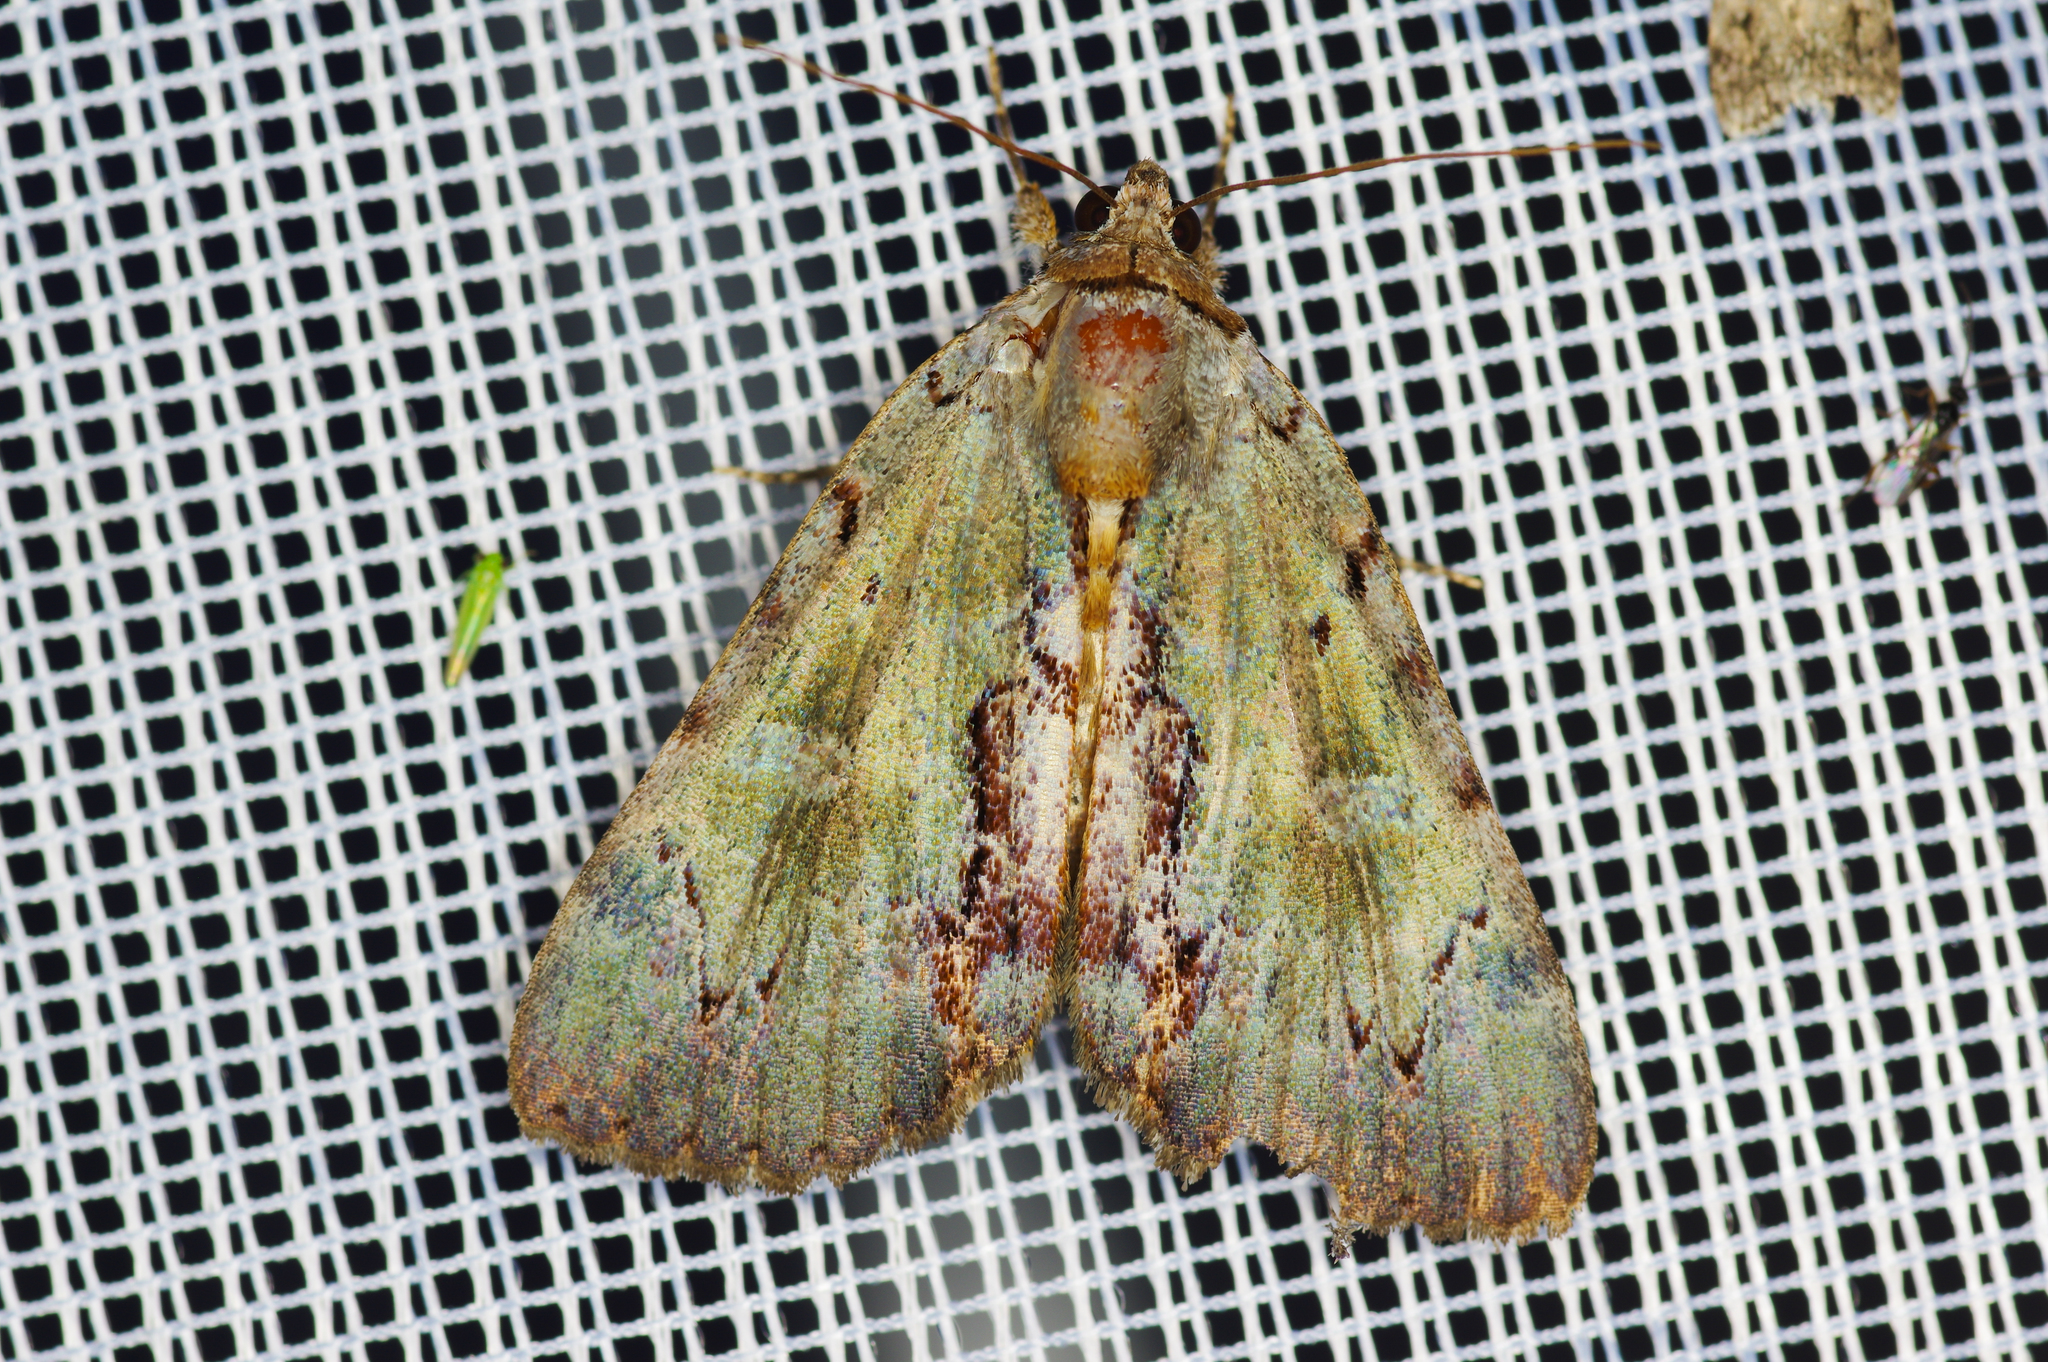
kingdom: Animalia
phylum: Arthropoda
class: Insecta
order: Lepidoptera
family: Erebidae
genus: Catocala
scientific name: Catocala grynea
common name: Woody underwing
